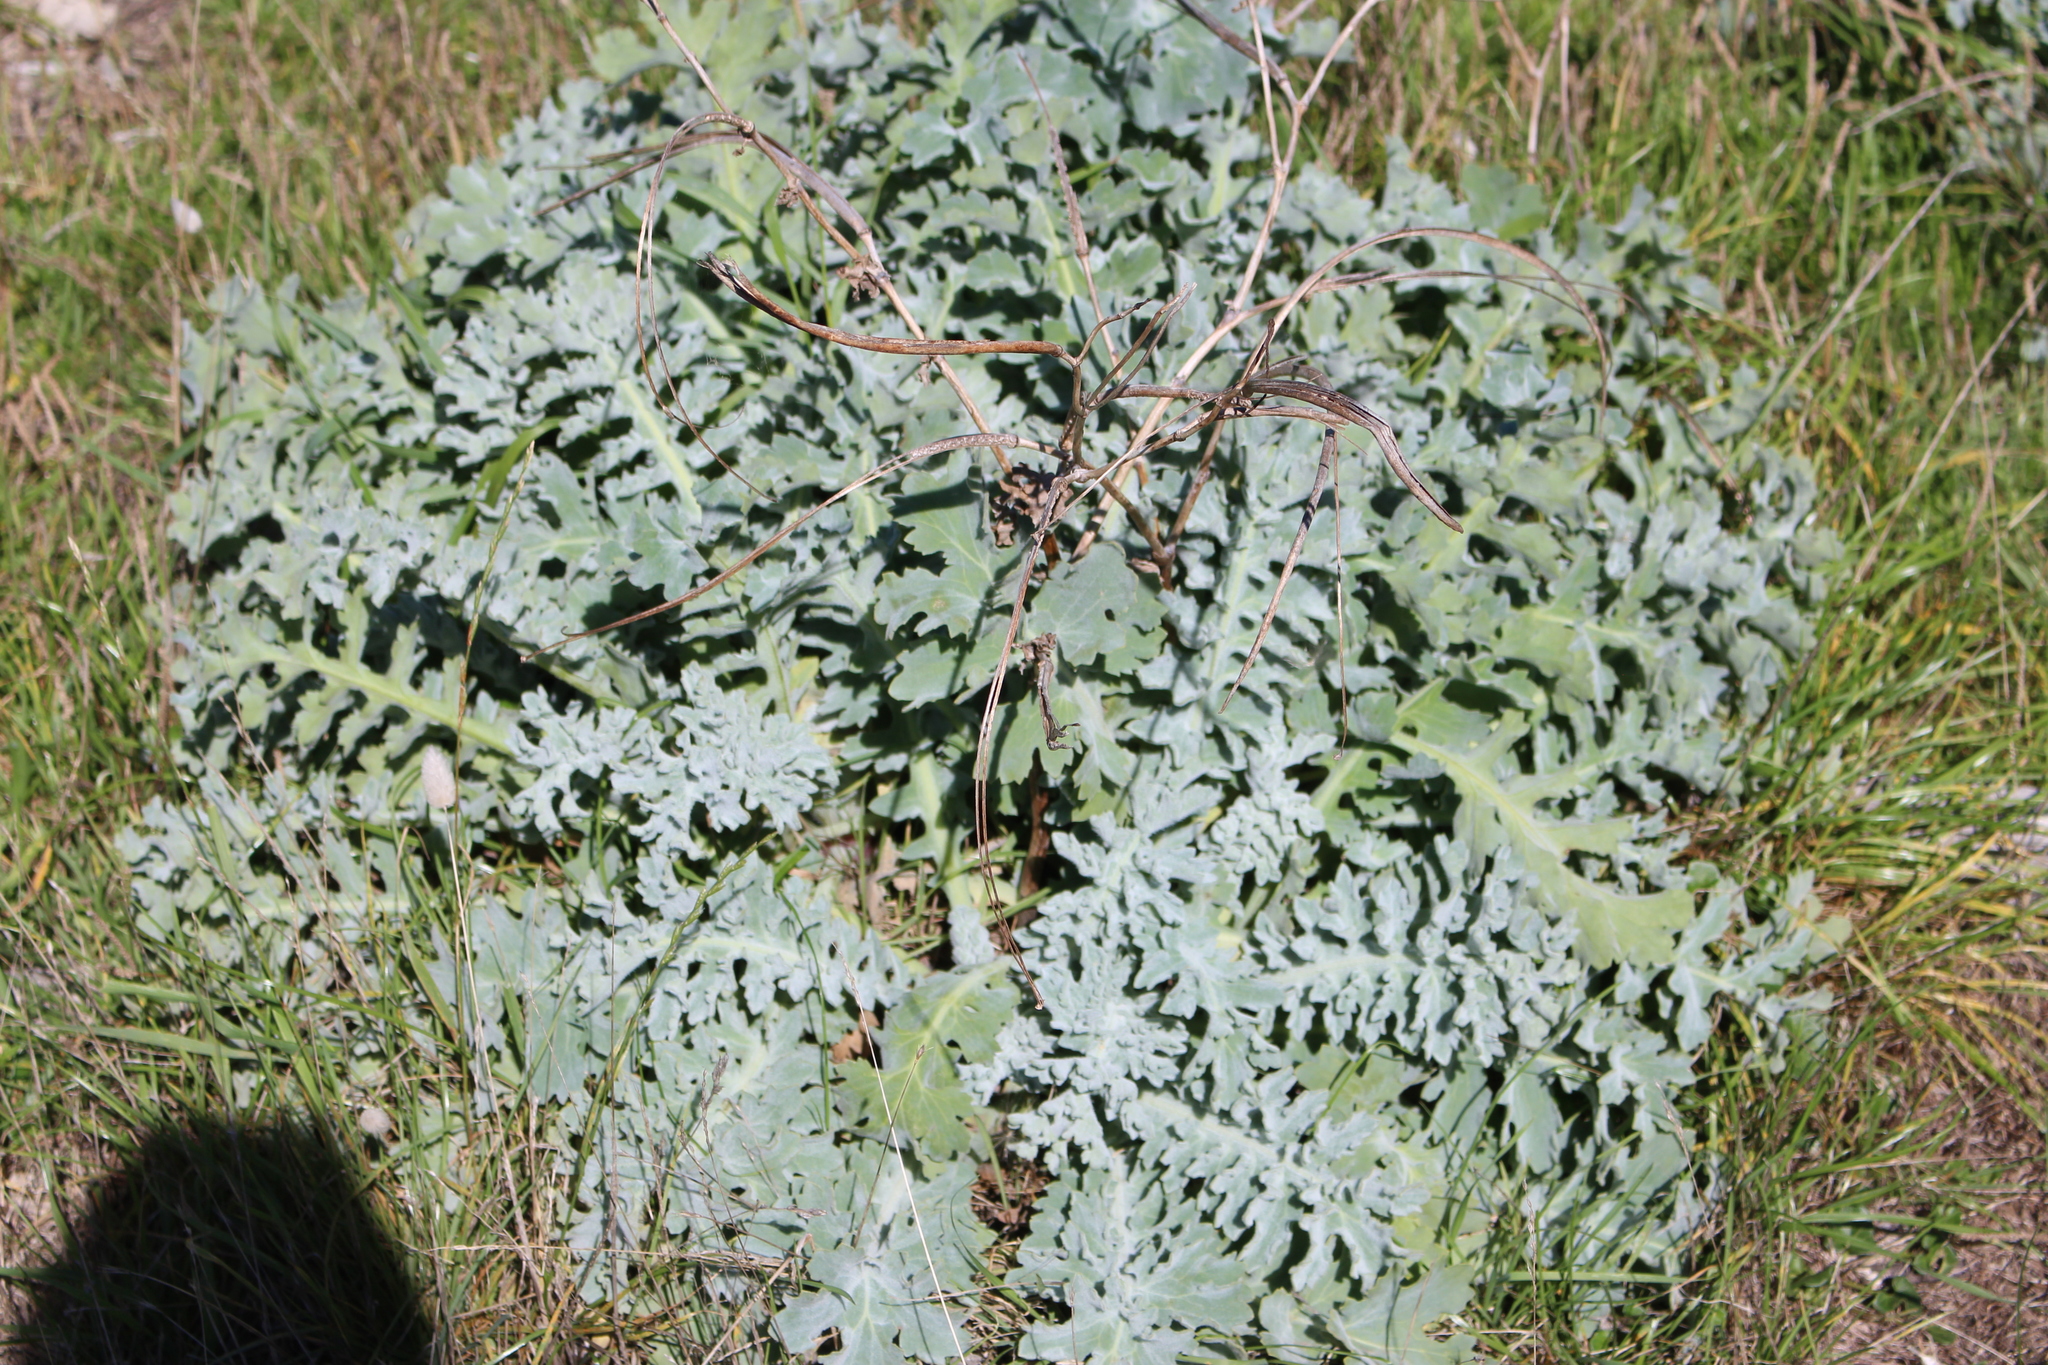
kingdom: Plantae
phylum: Tracheophyta
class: Magnoliopsida
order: Ranunculales
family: Papaveraceae
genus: Glaucium
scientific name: Glaucium flavum
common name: Yellow horned-poppy
